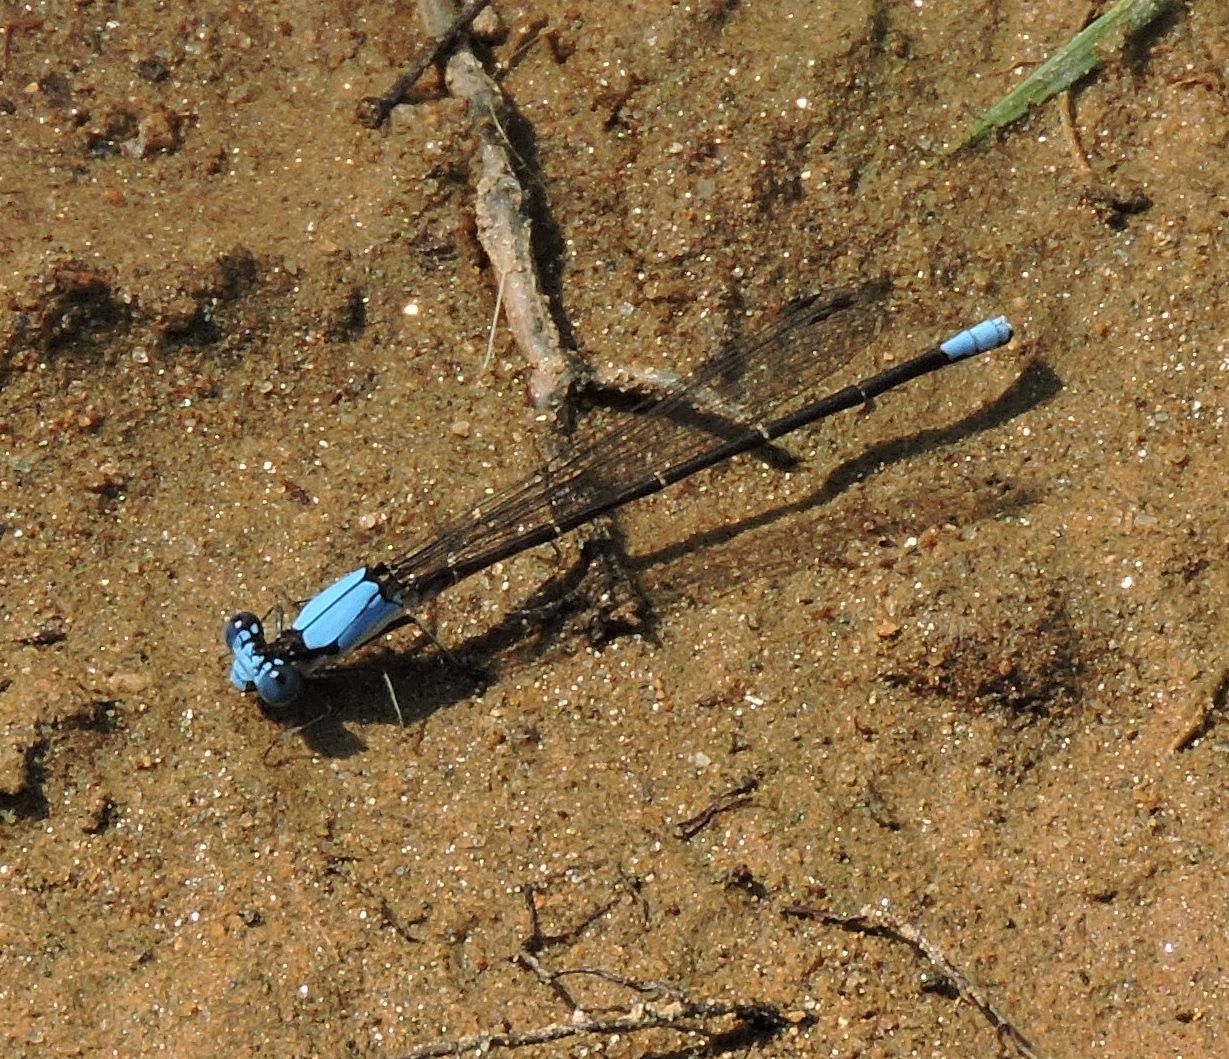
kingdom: Animalia
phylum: Arthropoda
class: Insecta
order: Odonata
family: Coenagrionidae
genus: Argia
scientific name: Argia apicalis
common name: Blue-fronted dancer
